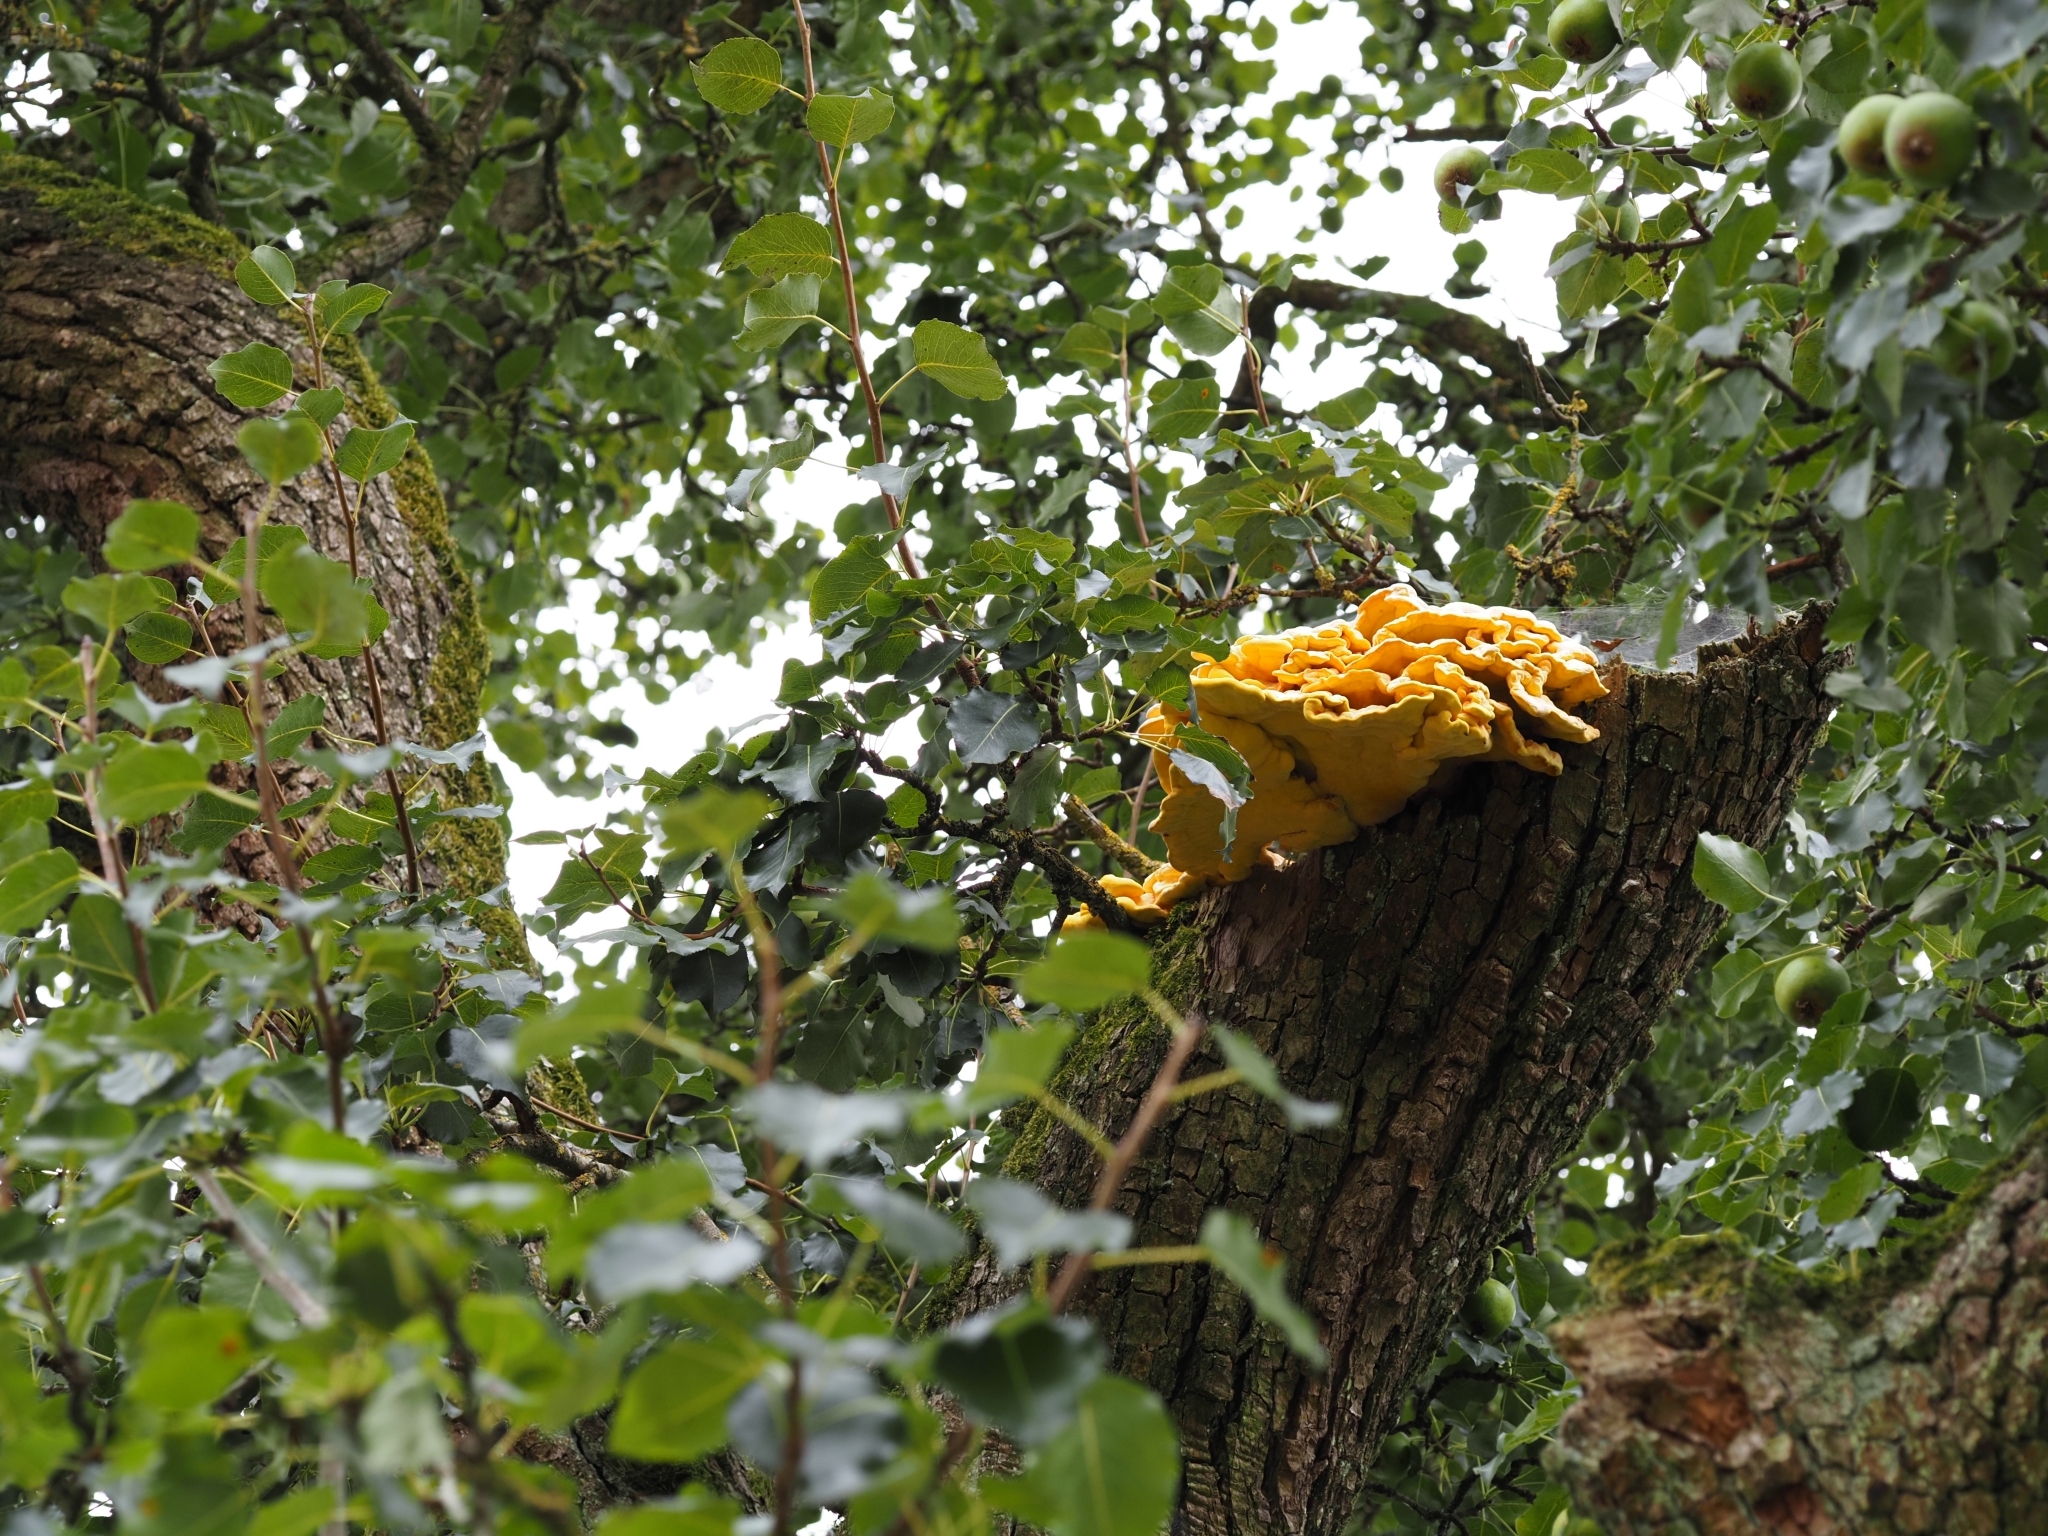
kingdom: Fungi
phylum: Basidiomycota
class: Agaricomycetes
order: Polyporales
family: Laetiporaceae
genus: Laetiporus
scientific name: Laetiporus sulphureus
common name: Chicken of the woods
